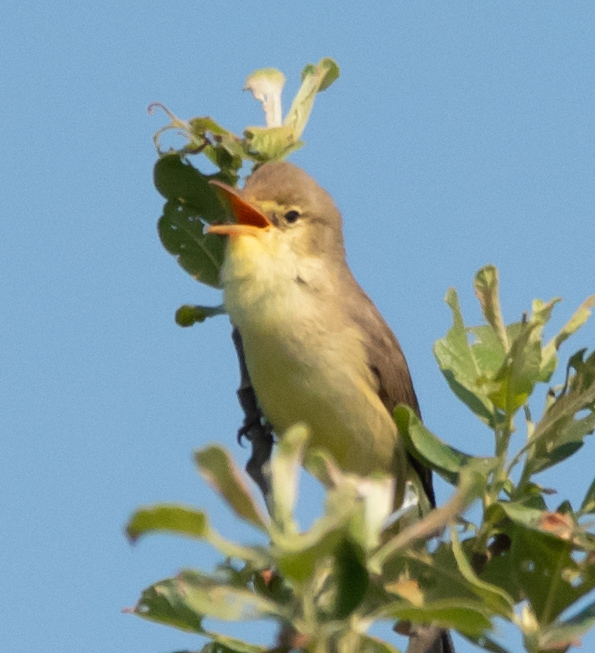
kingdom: Animalia
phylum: Chordata
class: Aves
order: Passeriformes
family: Acrocephalidae
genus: Hippolais
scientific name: Hippolais polyglotta
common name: Melodious warbler
